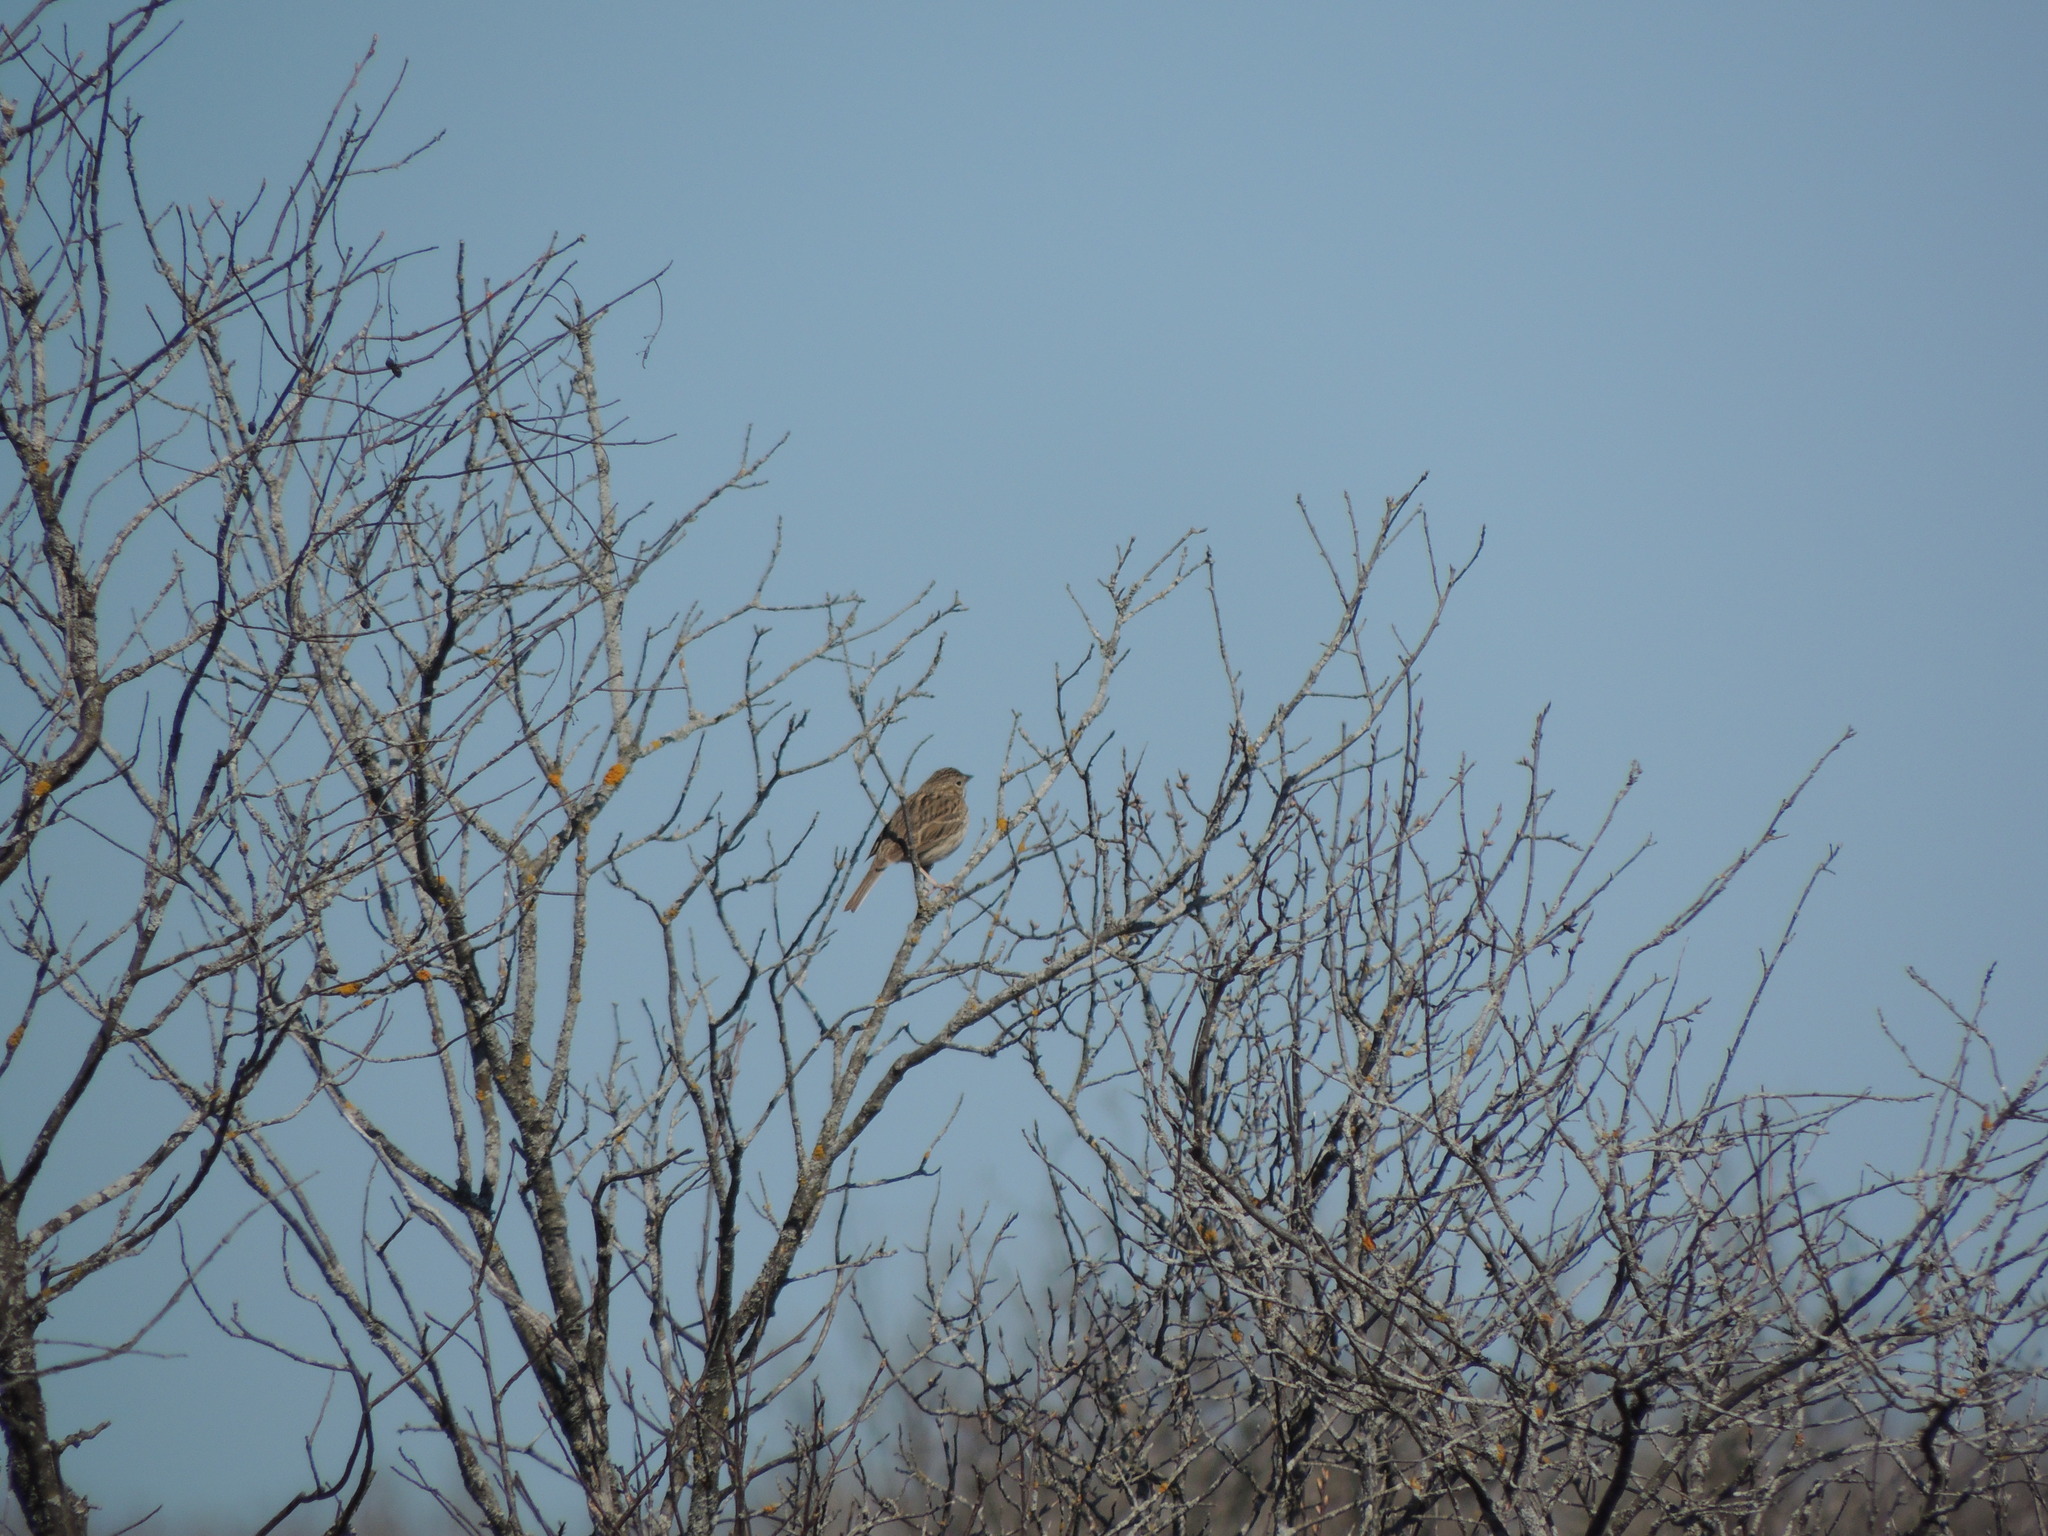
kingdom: Animalia
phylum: Chordata
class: Aves
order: Passeriformes
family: Passerellidae
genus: Pooecetes
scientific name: Pooecetes gramineus
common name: Vesper sparrow
